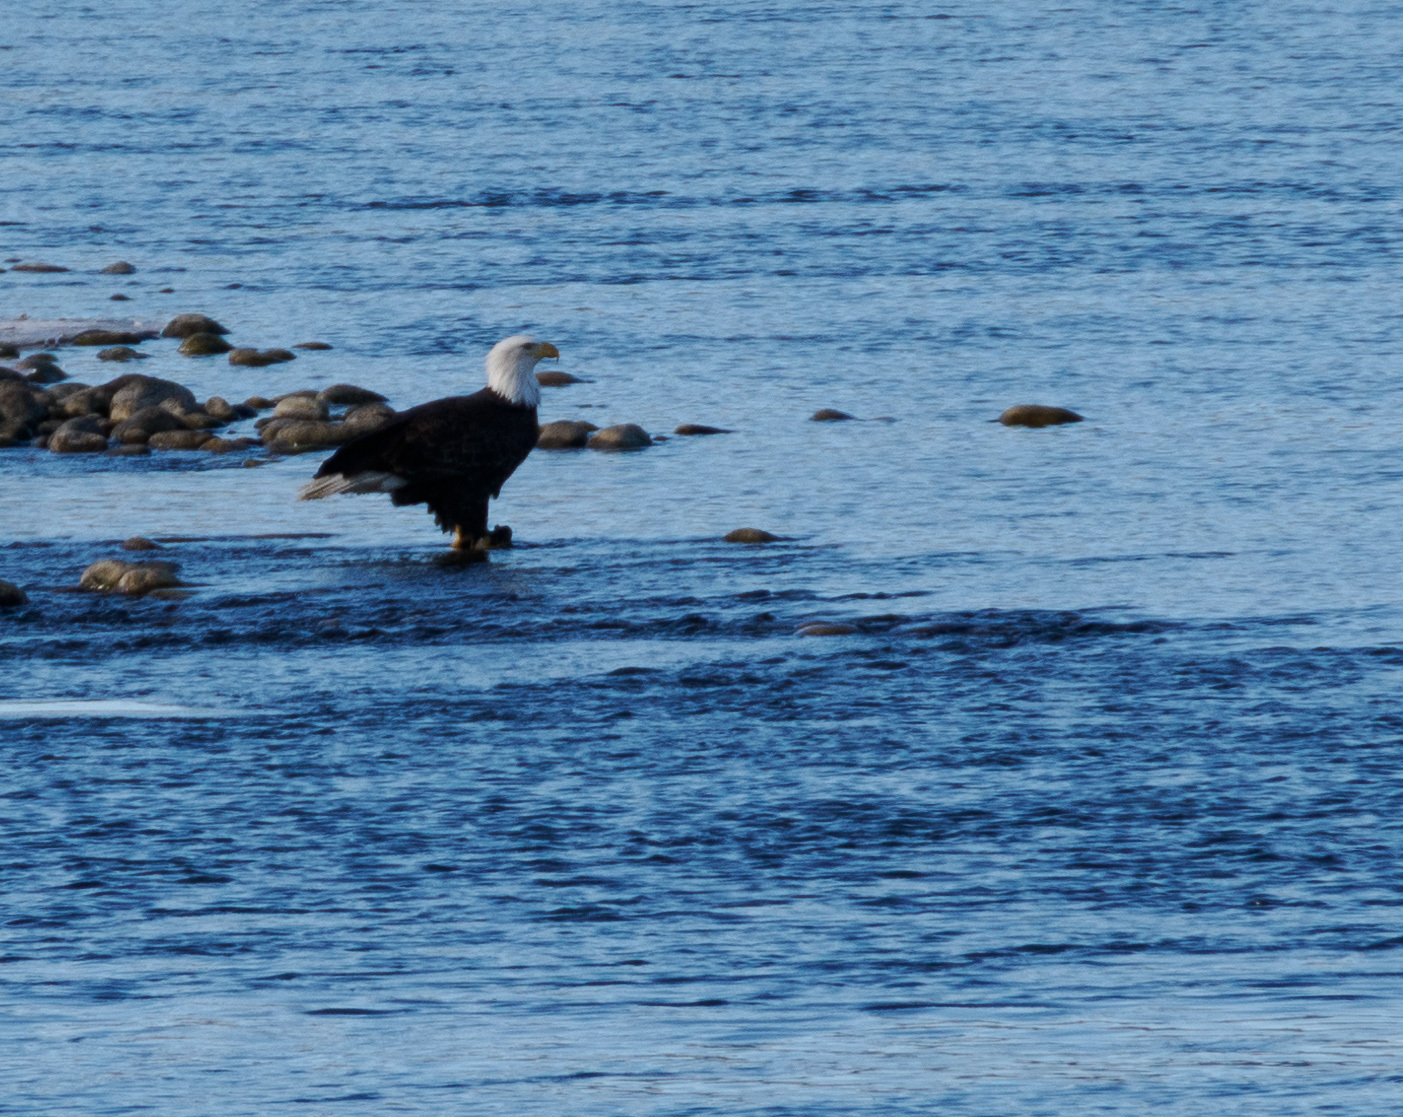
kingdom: Animalia
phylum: Chordata
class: Aves
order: Accipitriformes
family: Accipitridae
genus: Haliaeetus
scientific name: Haliaeetus leucocephalus
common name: Bald eagle
